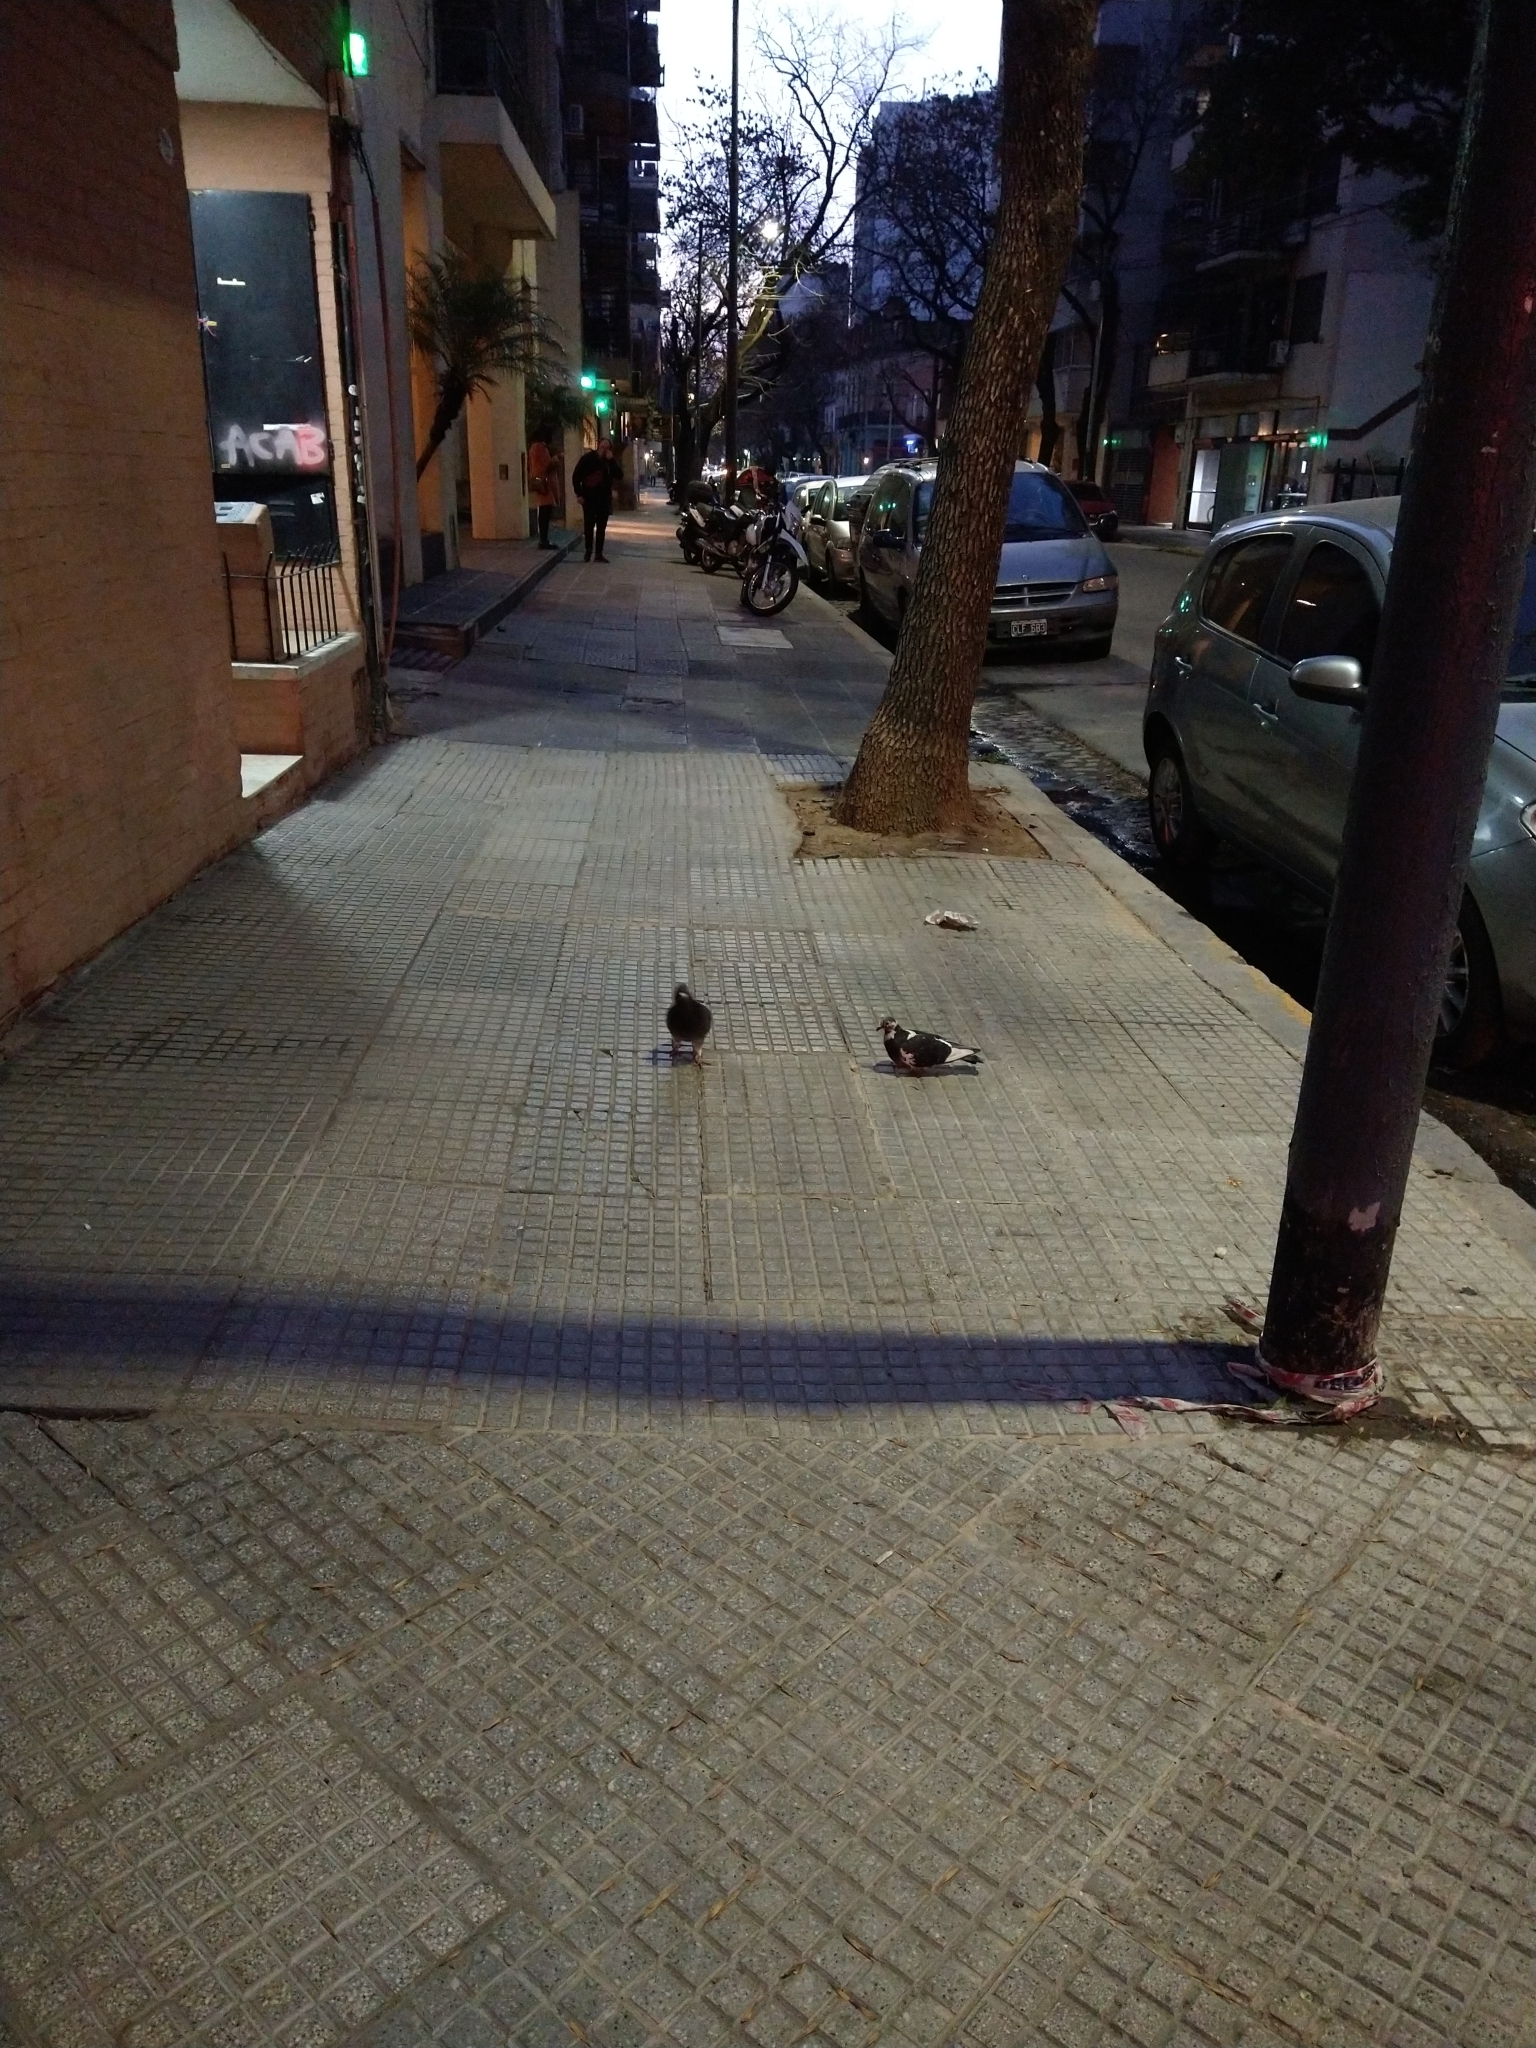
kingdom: Animalia
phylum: Chordata
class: Aves
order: Columbiformes
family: Columbidae
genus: Columba
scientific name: Columba livia
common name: Rock pigeon
